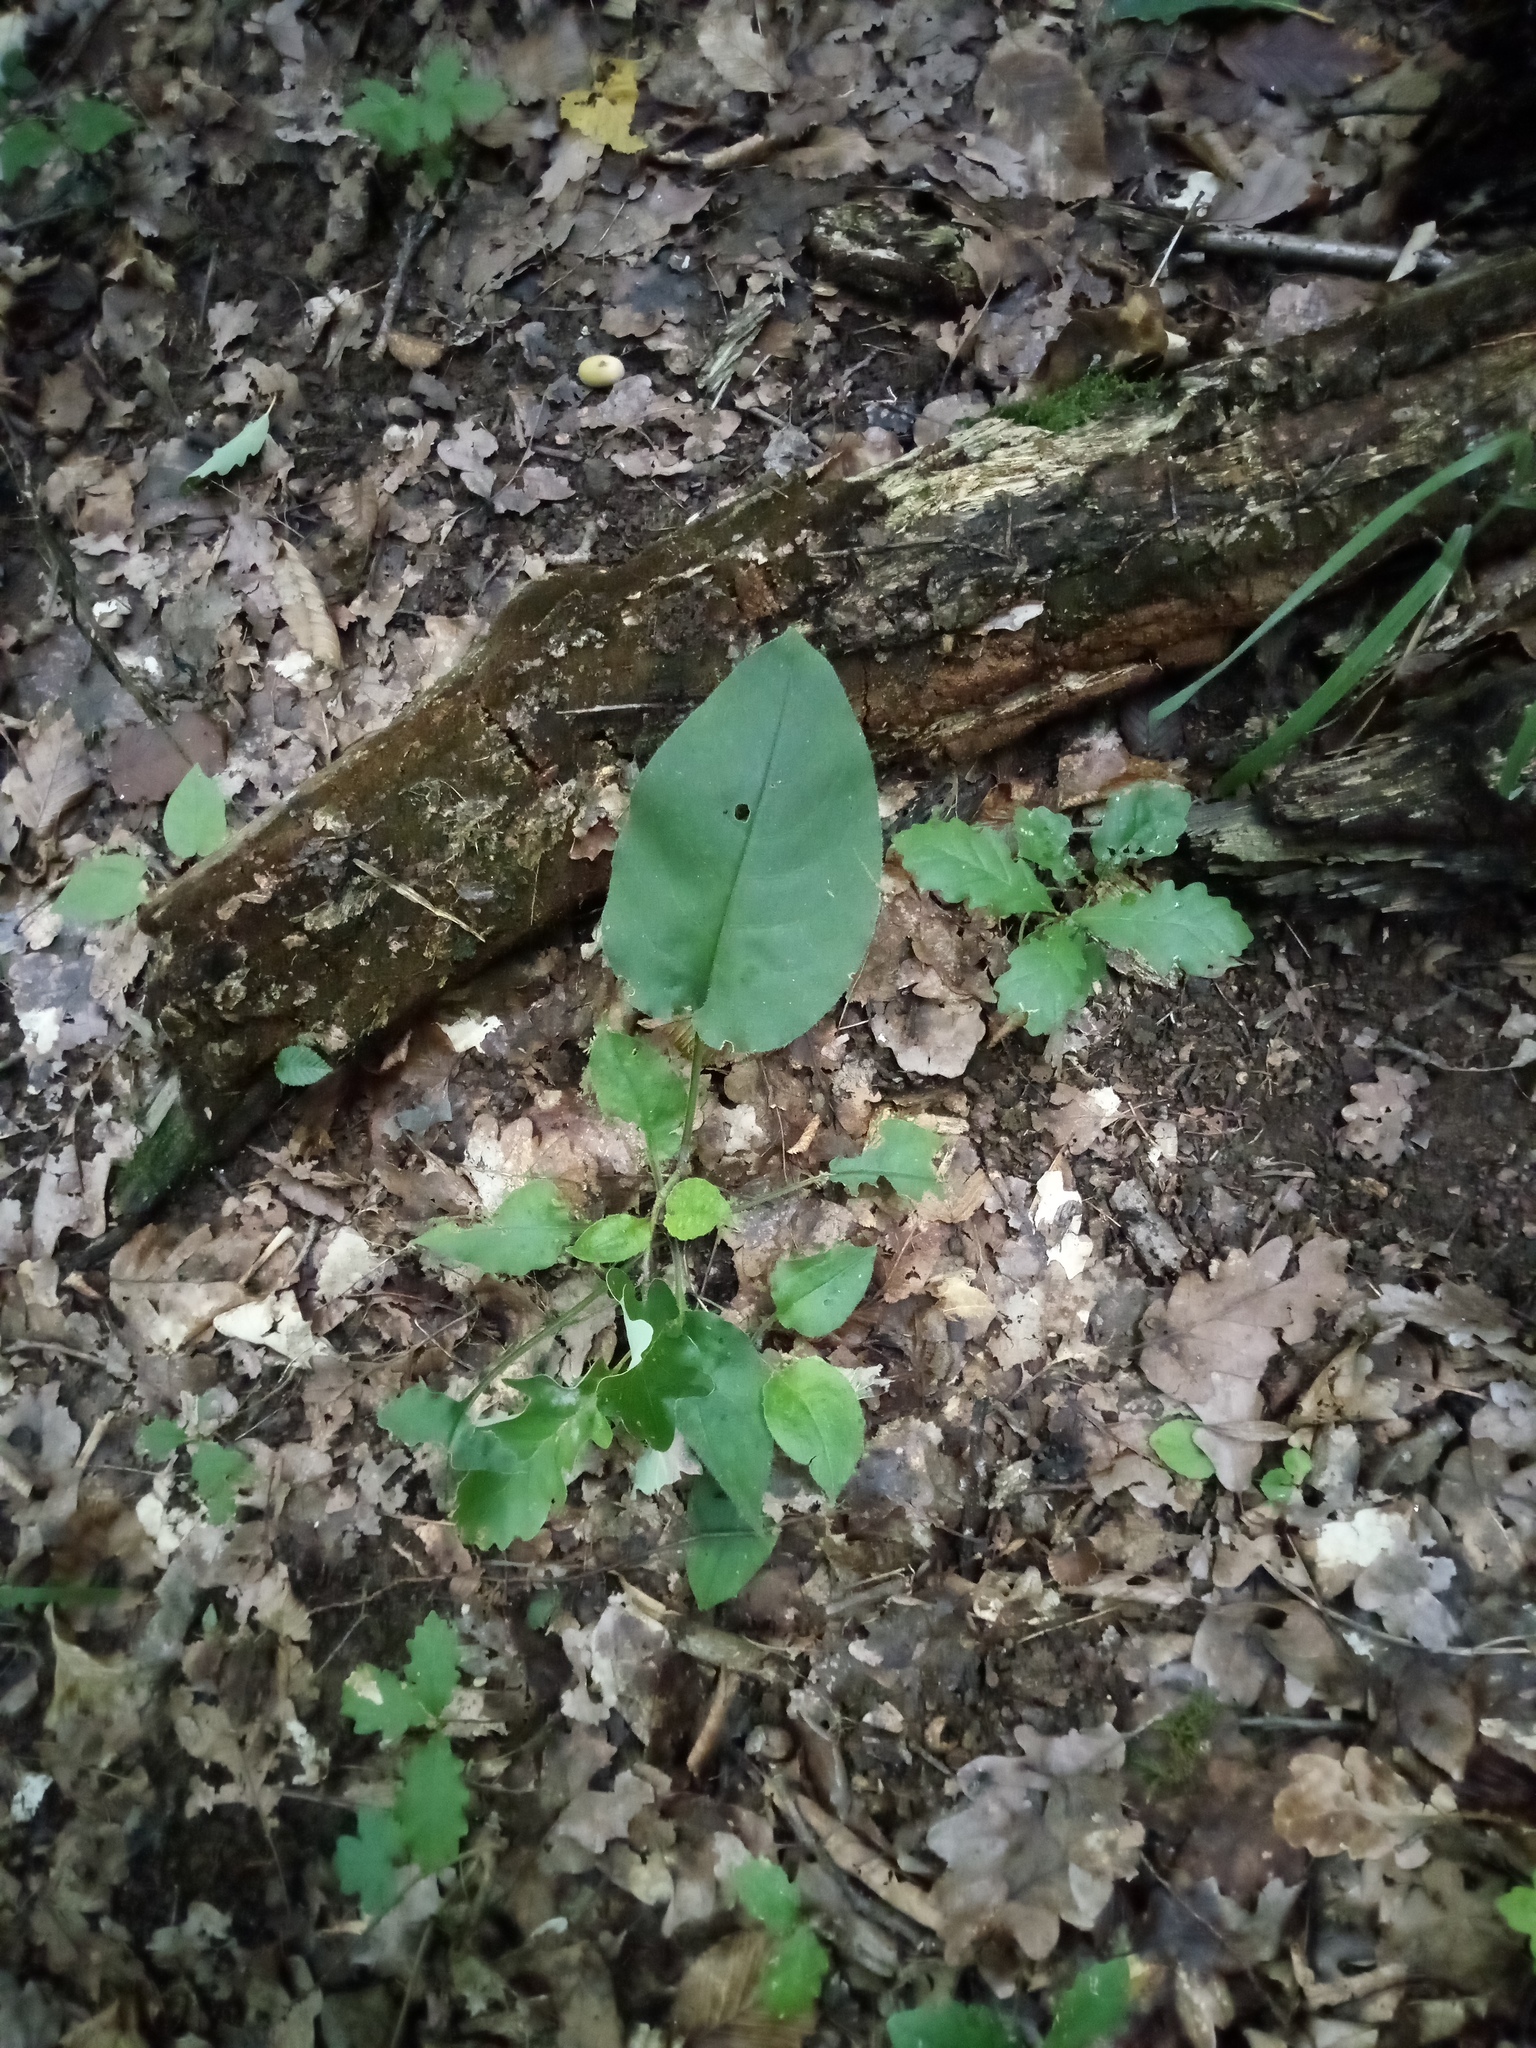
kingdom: Plantae
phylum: Tracheophyta
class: Magnoliopsida
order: Boraginales
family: Boraginaceae
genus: Pulmonaria
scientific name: Pulmonaria obscura
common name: Suffolk lungwort
